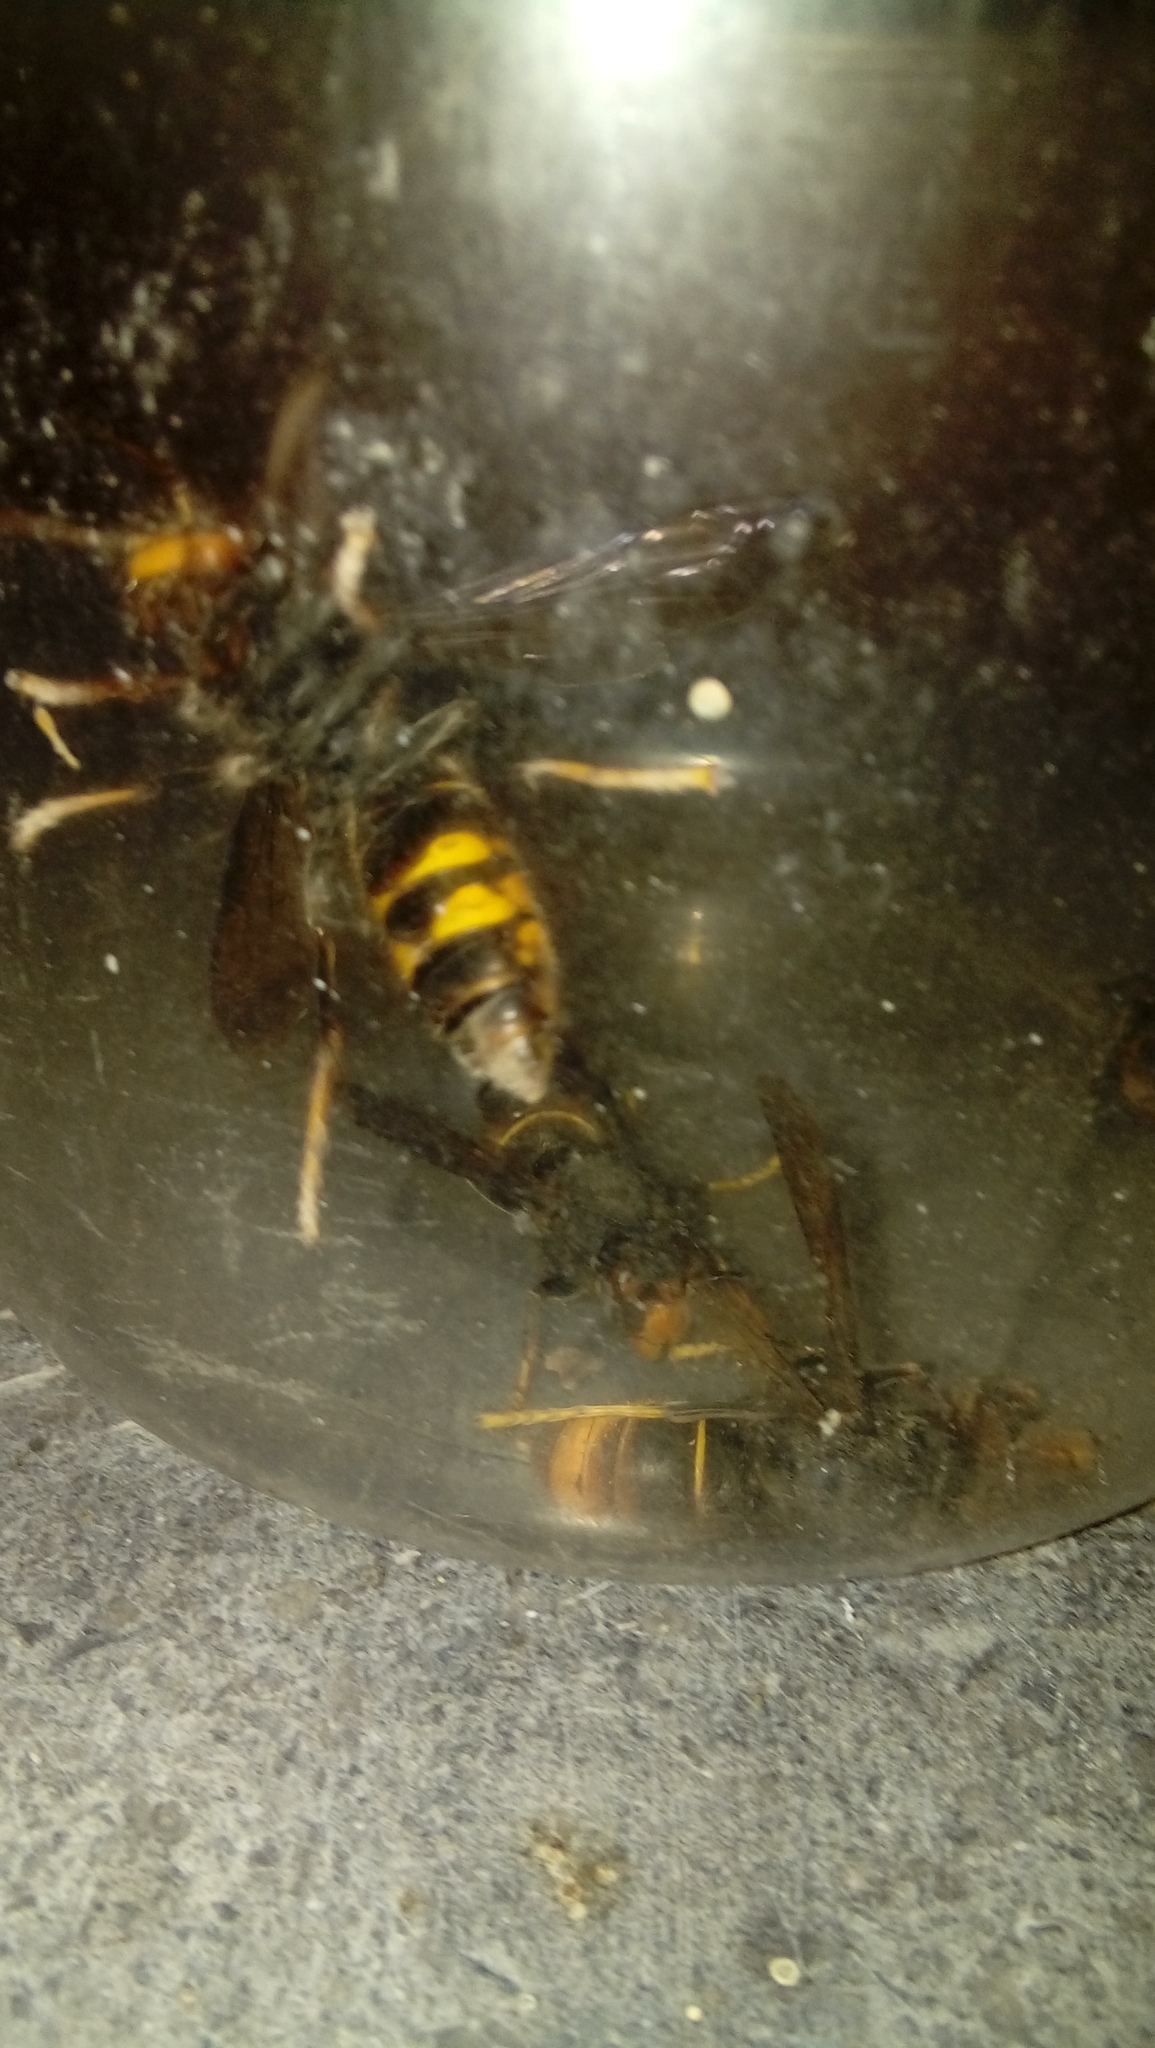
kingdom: Animalia
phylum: Arthropoda
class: Insecta
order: Hymenoptera
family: Vespidae
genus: Vespa
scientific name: Vespa velutina
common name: Asian hornet
